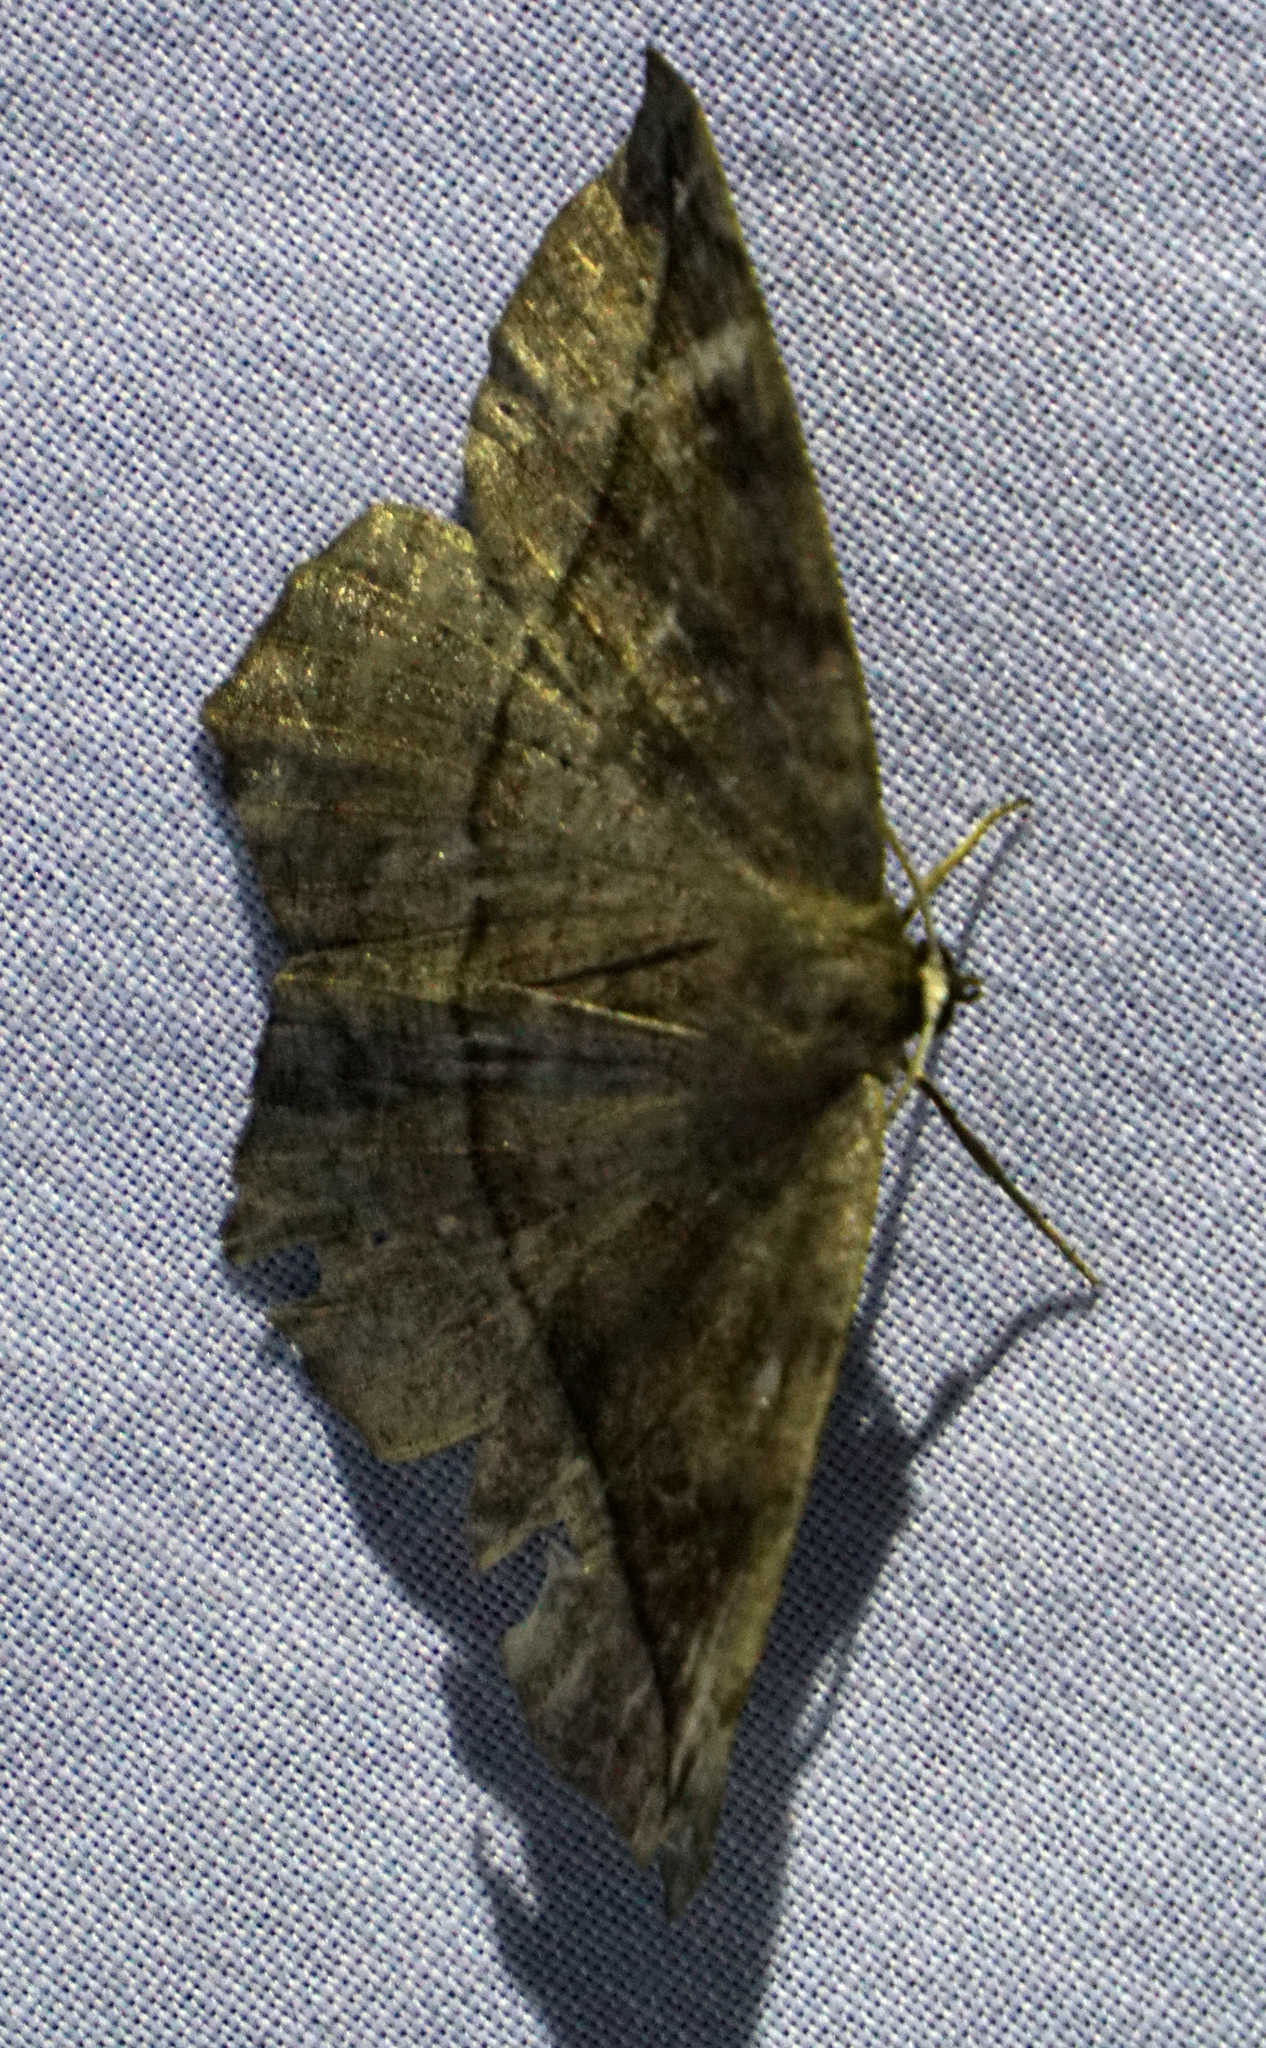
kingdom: Animalia
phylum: Arthropoda
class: Insecta
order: Lepidoptera
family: Geometridae
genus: Eutrapela
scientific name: Eutrapela clemataria
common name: Curved-toothed geometer
